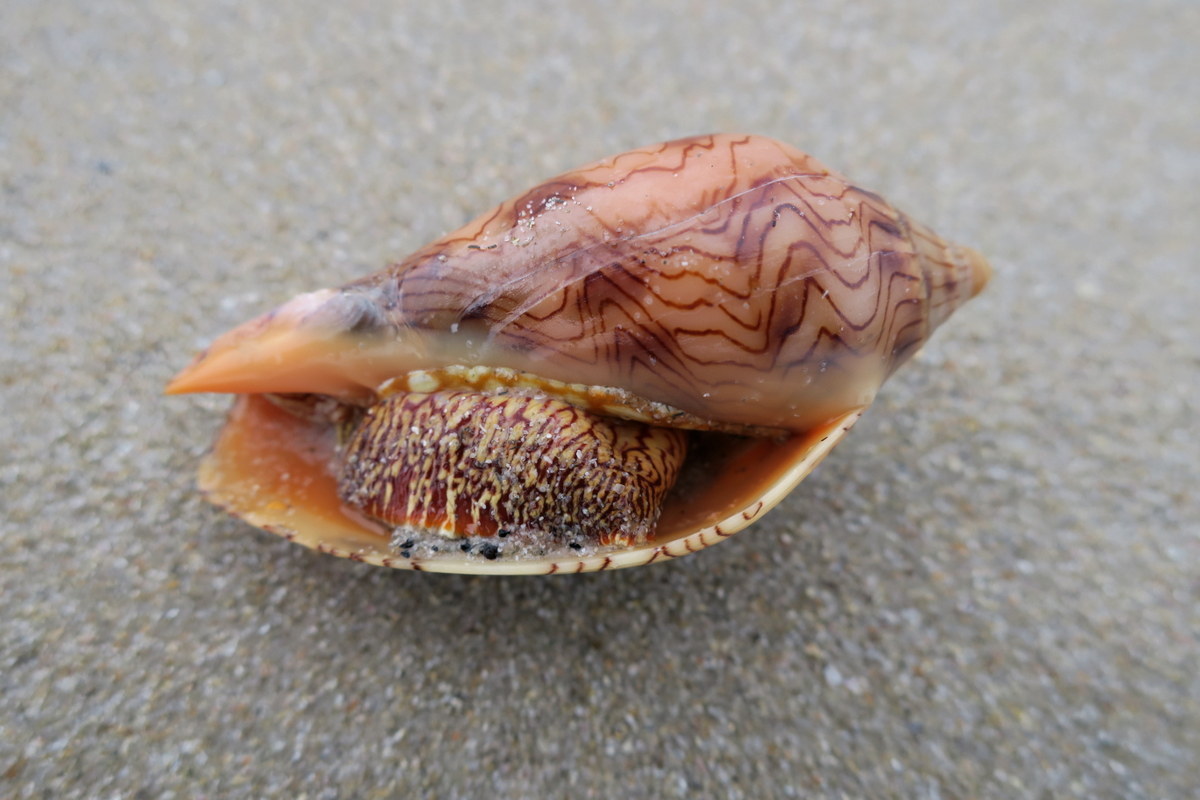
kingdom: Animalia
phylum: Mollusca
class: Gastropoda
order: Neogastropoda
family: Volutidae
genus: Amoria
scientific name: Amoria undulata
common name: Waved volute
